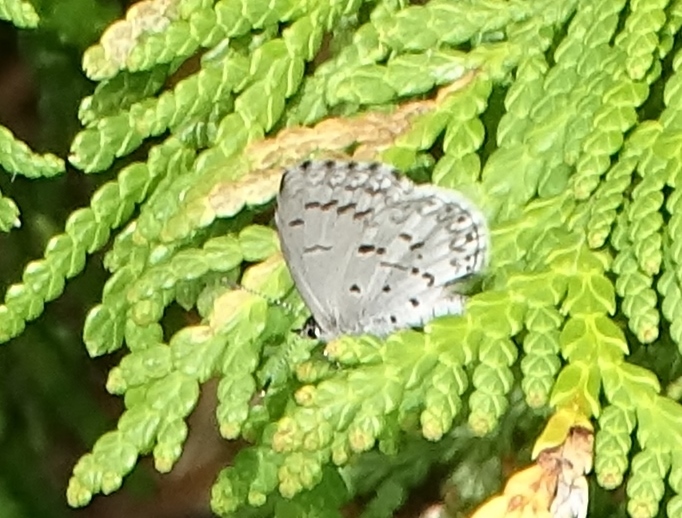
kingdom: Animalia
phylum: Arthropoda
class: Insecta
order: Lepidoptera
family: Lycaenidae
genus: Celastrina
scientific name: Celastrina lucia
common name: Lucia azure
